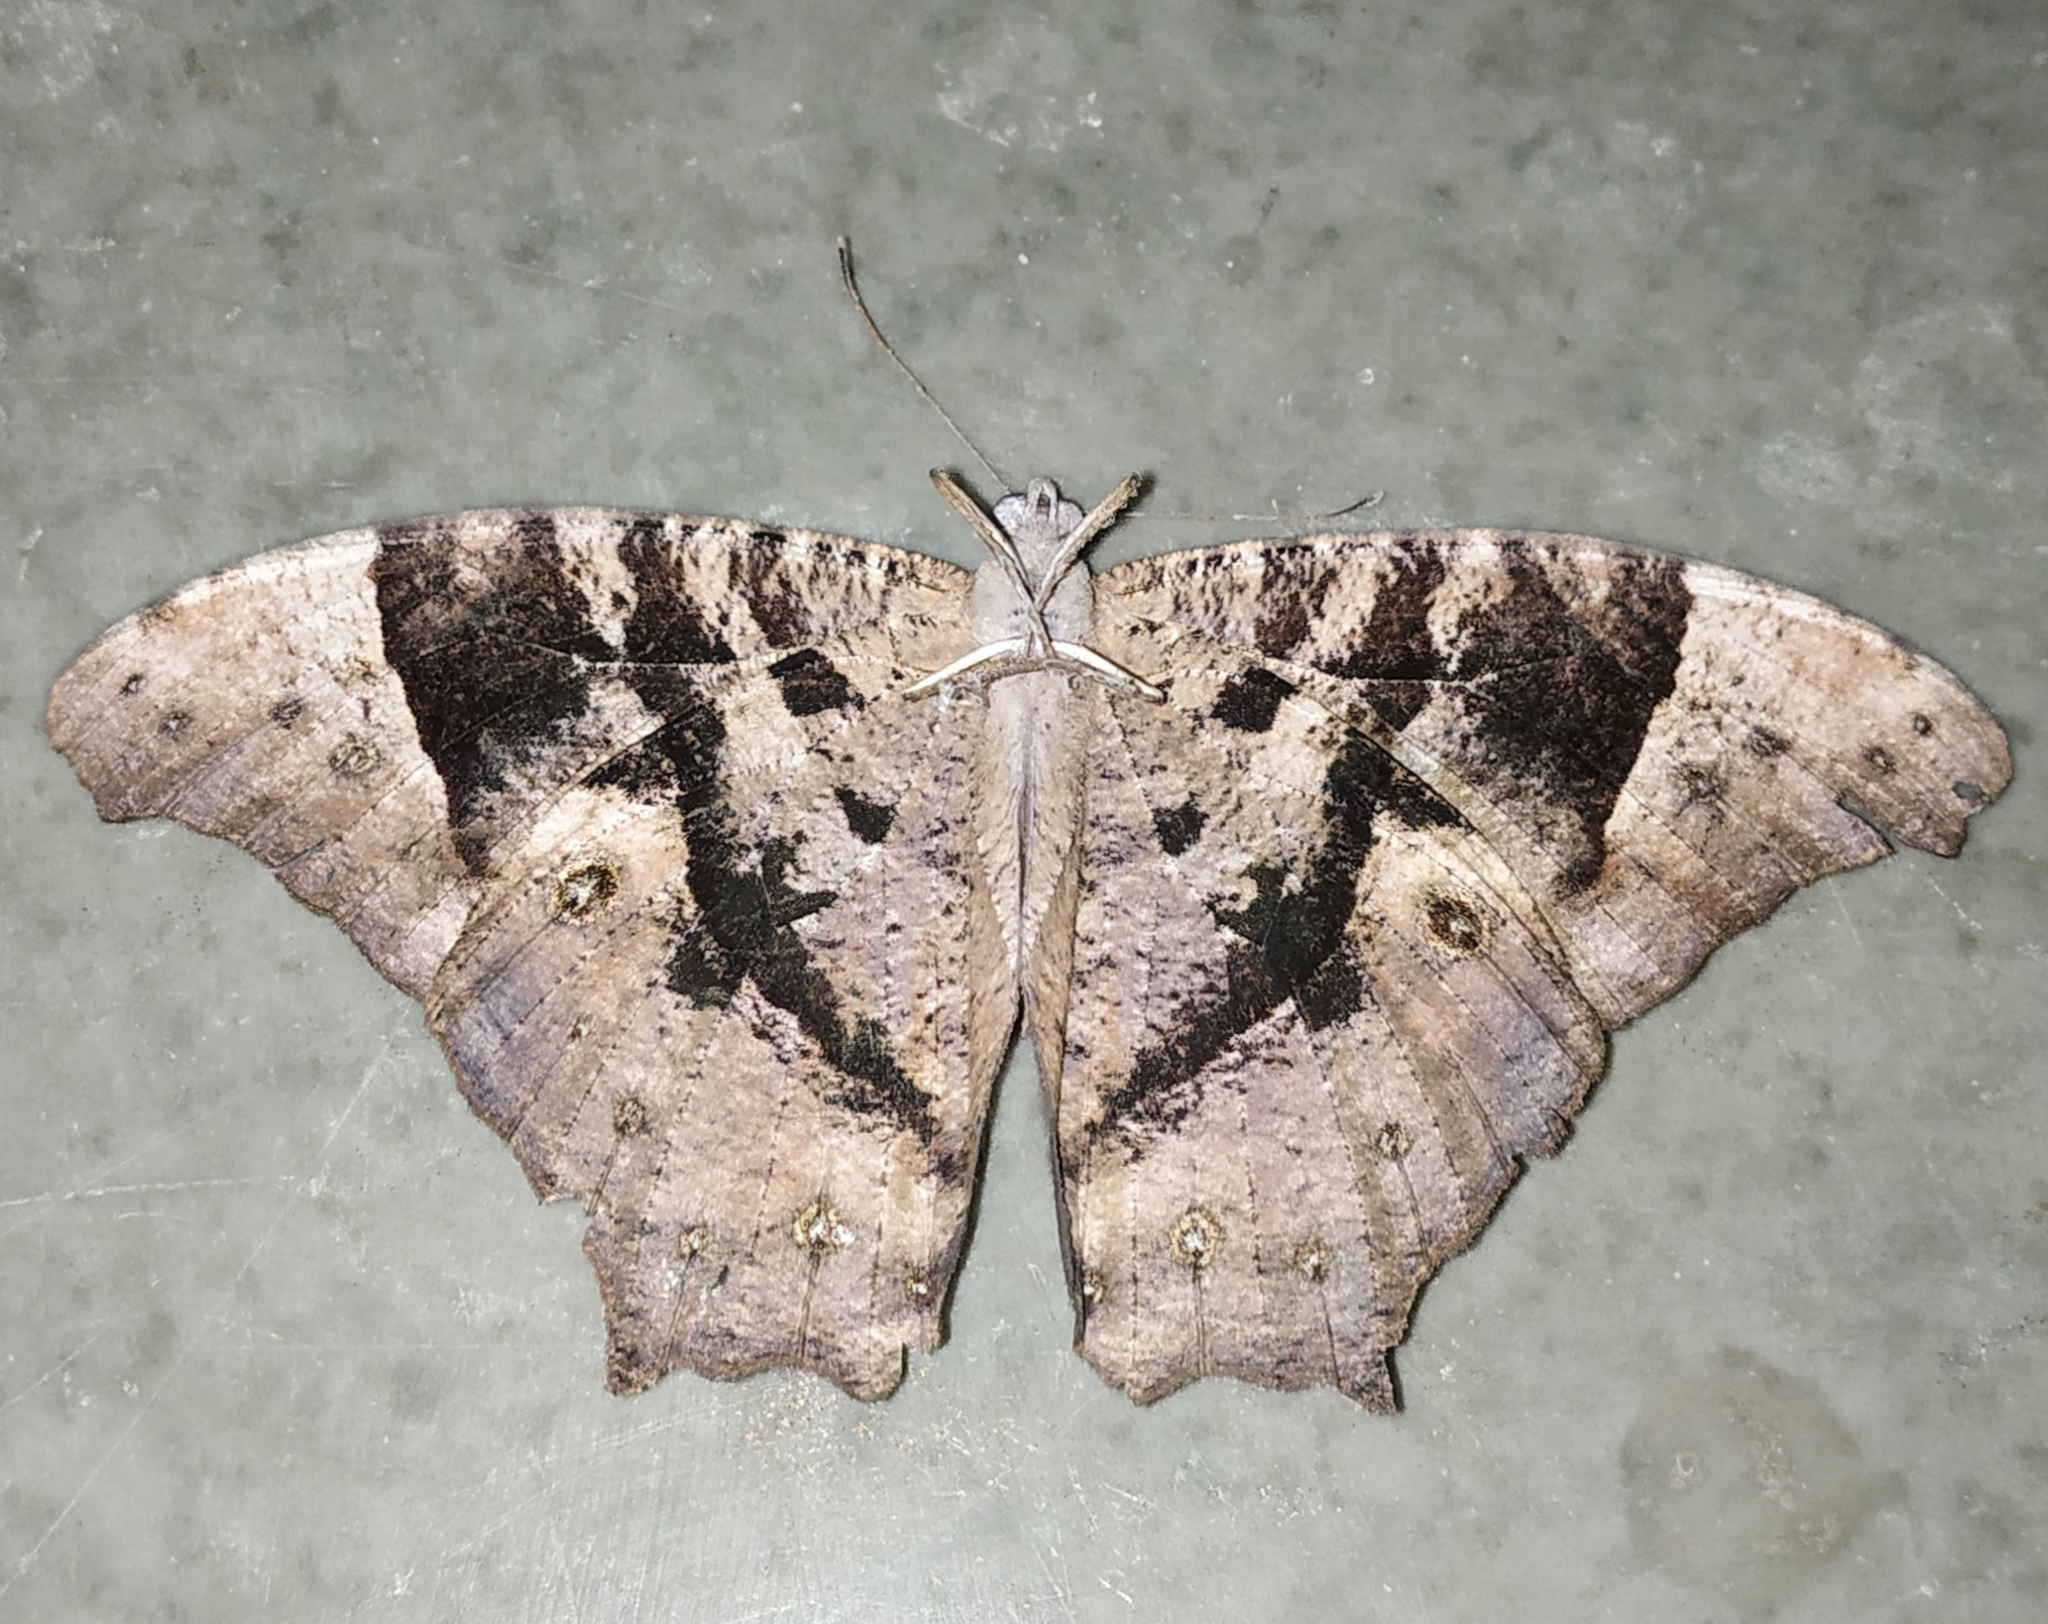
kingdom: Animalia
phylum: Arthropoda
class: Insecta
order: Lepidoptera
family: Nymphalidae
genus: Melanitis
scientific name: Melanitis leda
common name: Twilight brown
